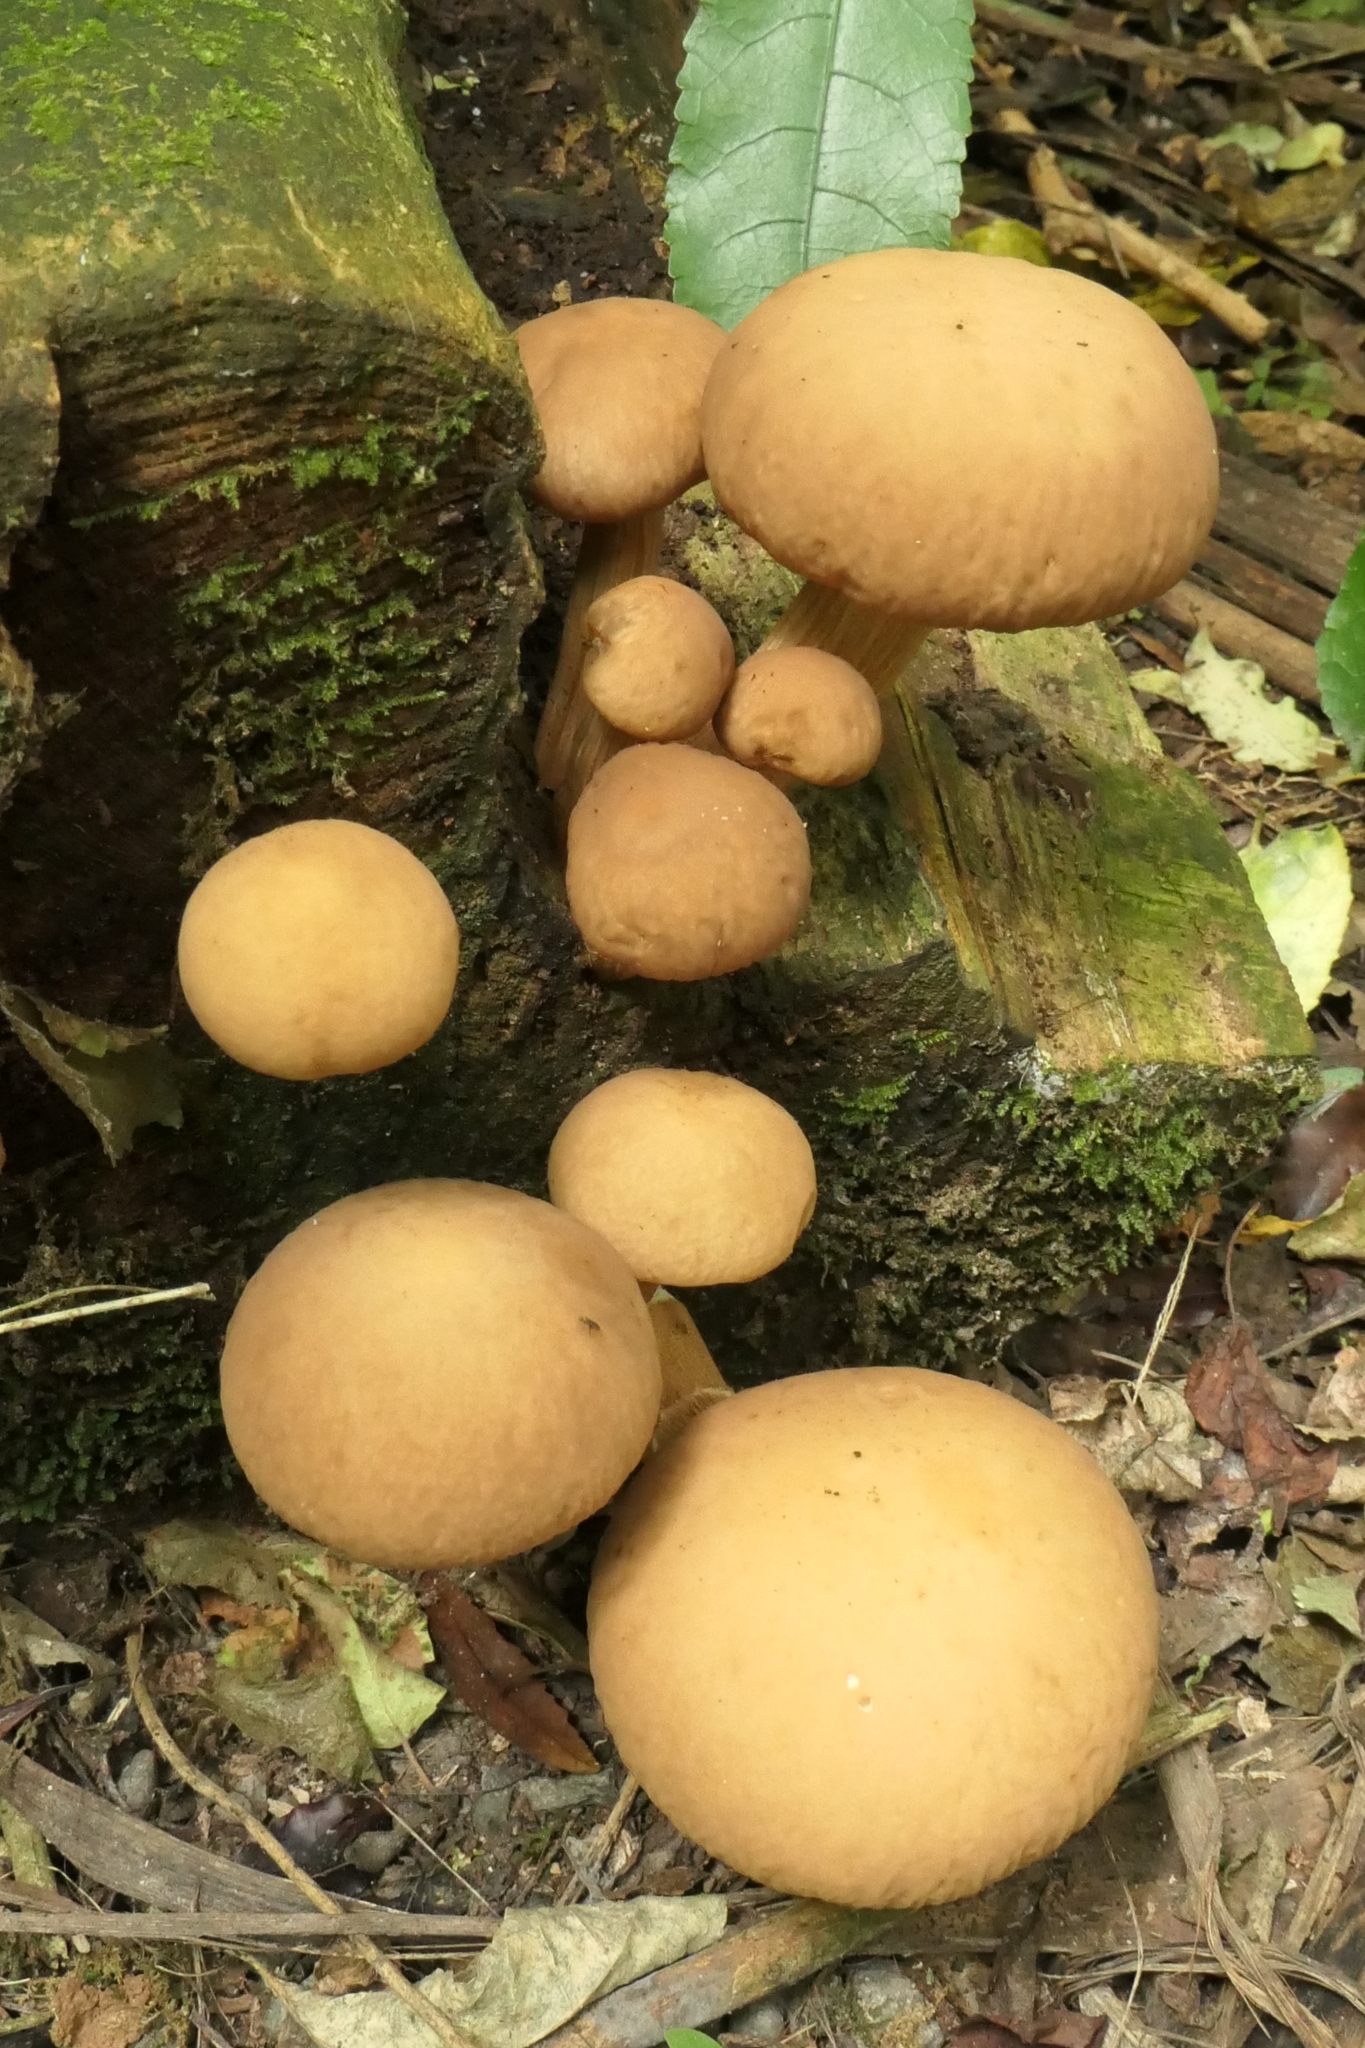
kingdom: Fungi
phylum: Basidiomycota
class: Agaricomycetes
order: Agaricales
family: Tubariaceae
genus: Cyclocybe
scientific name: Cyclocybe parasitica
